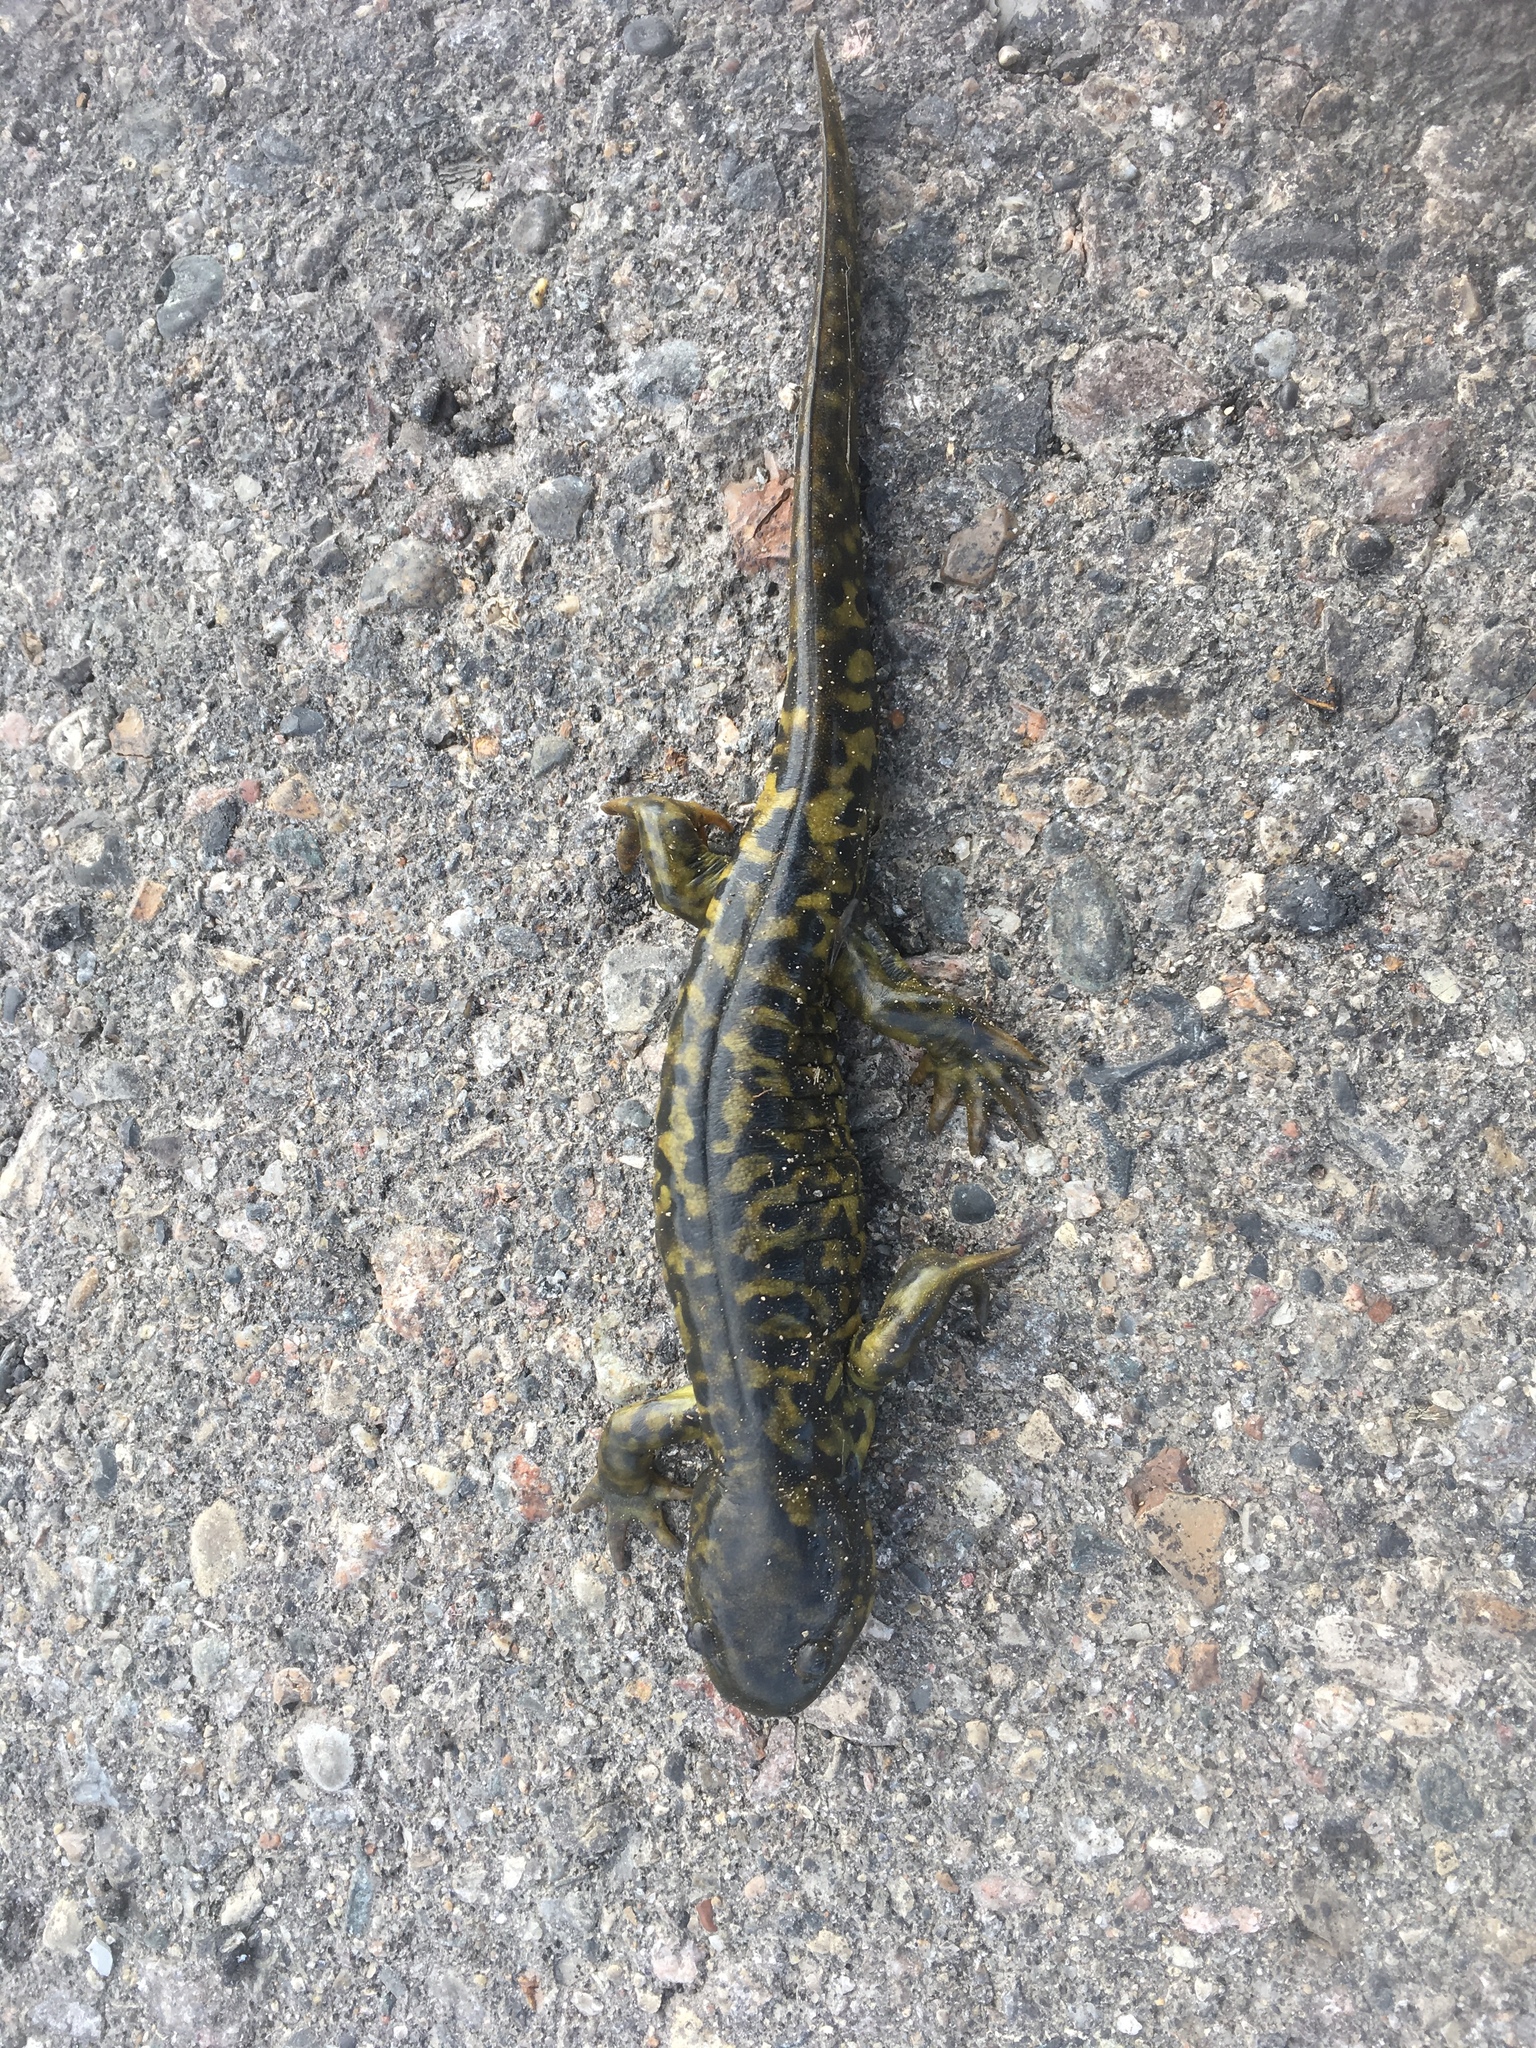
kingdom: Animalia
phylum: Chordata
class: Amphibia
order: Caudata
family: Ambystomatidae
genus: Ambystoma
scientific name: Ambystoma mavortium
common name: Western tiger salamander
